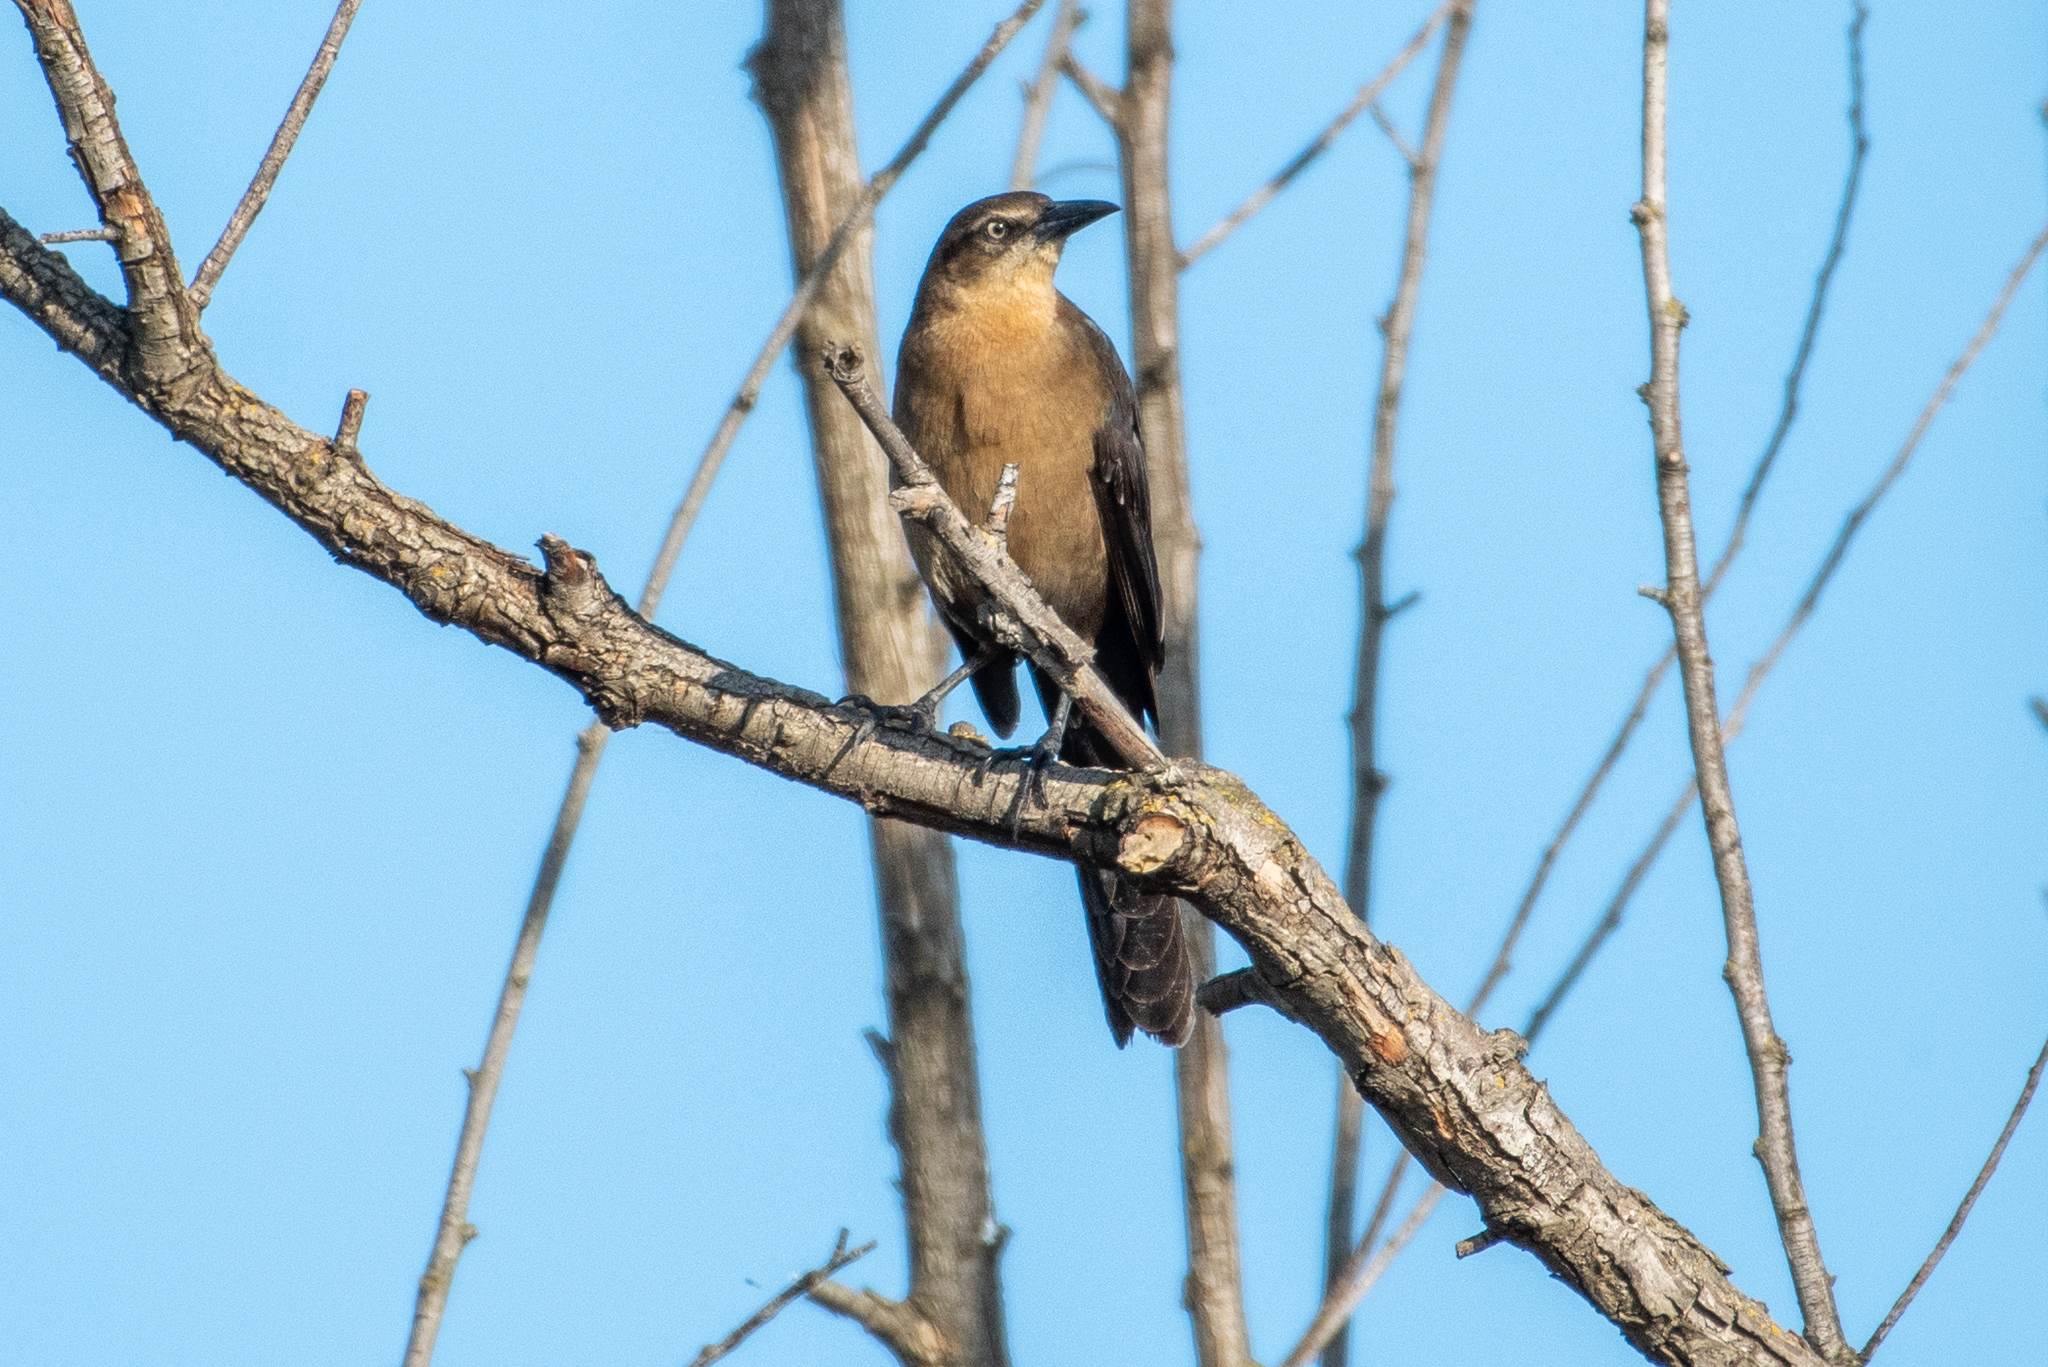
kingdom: Animalia
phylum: Chordata
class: Aves
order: Passeriformes
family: Icteridae
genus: Quiscalus
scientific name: Quiscalus mexicanus
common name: Great-tailed grackle
